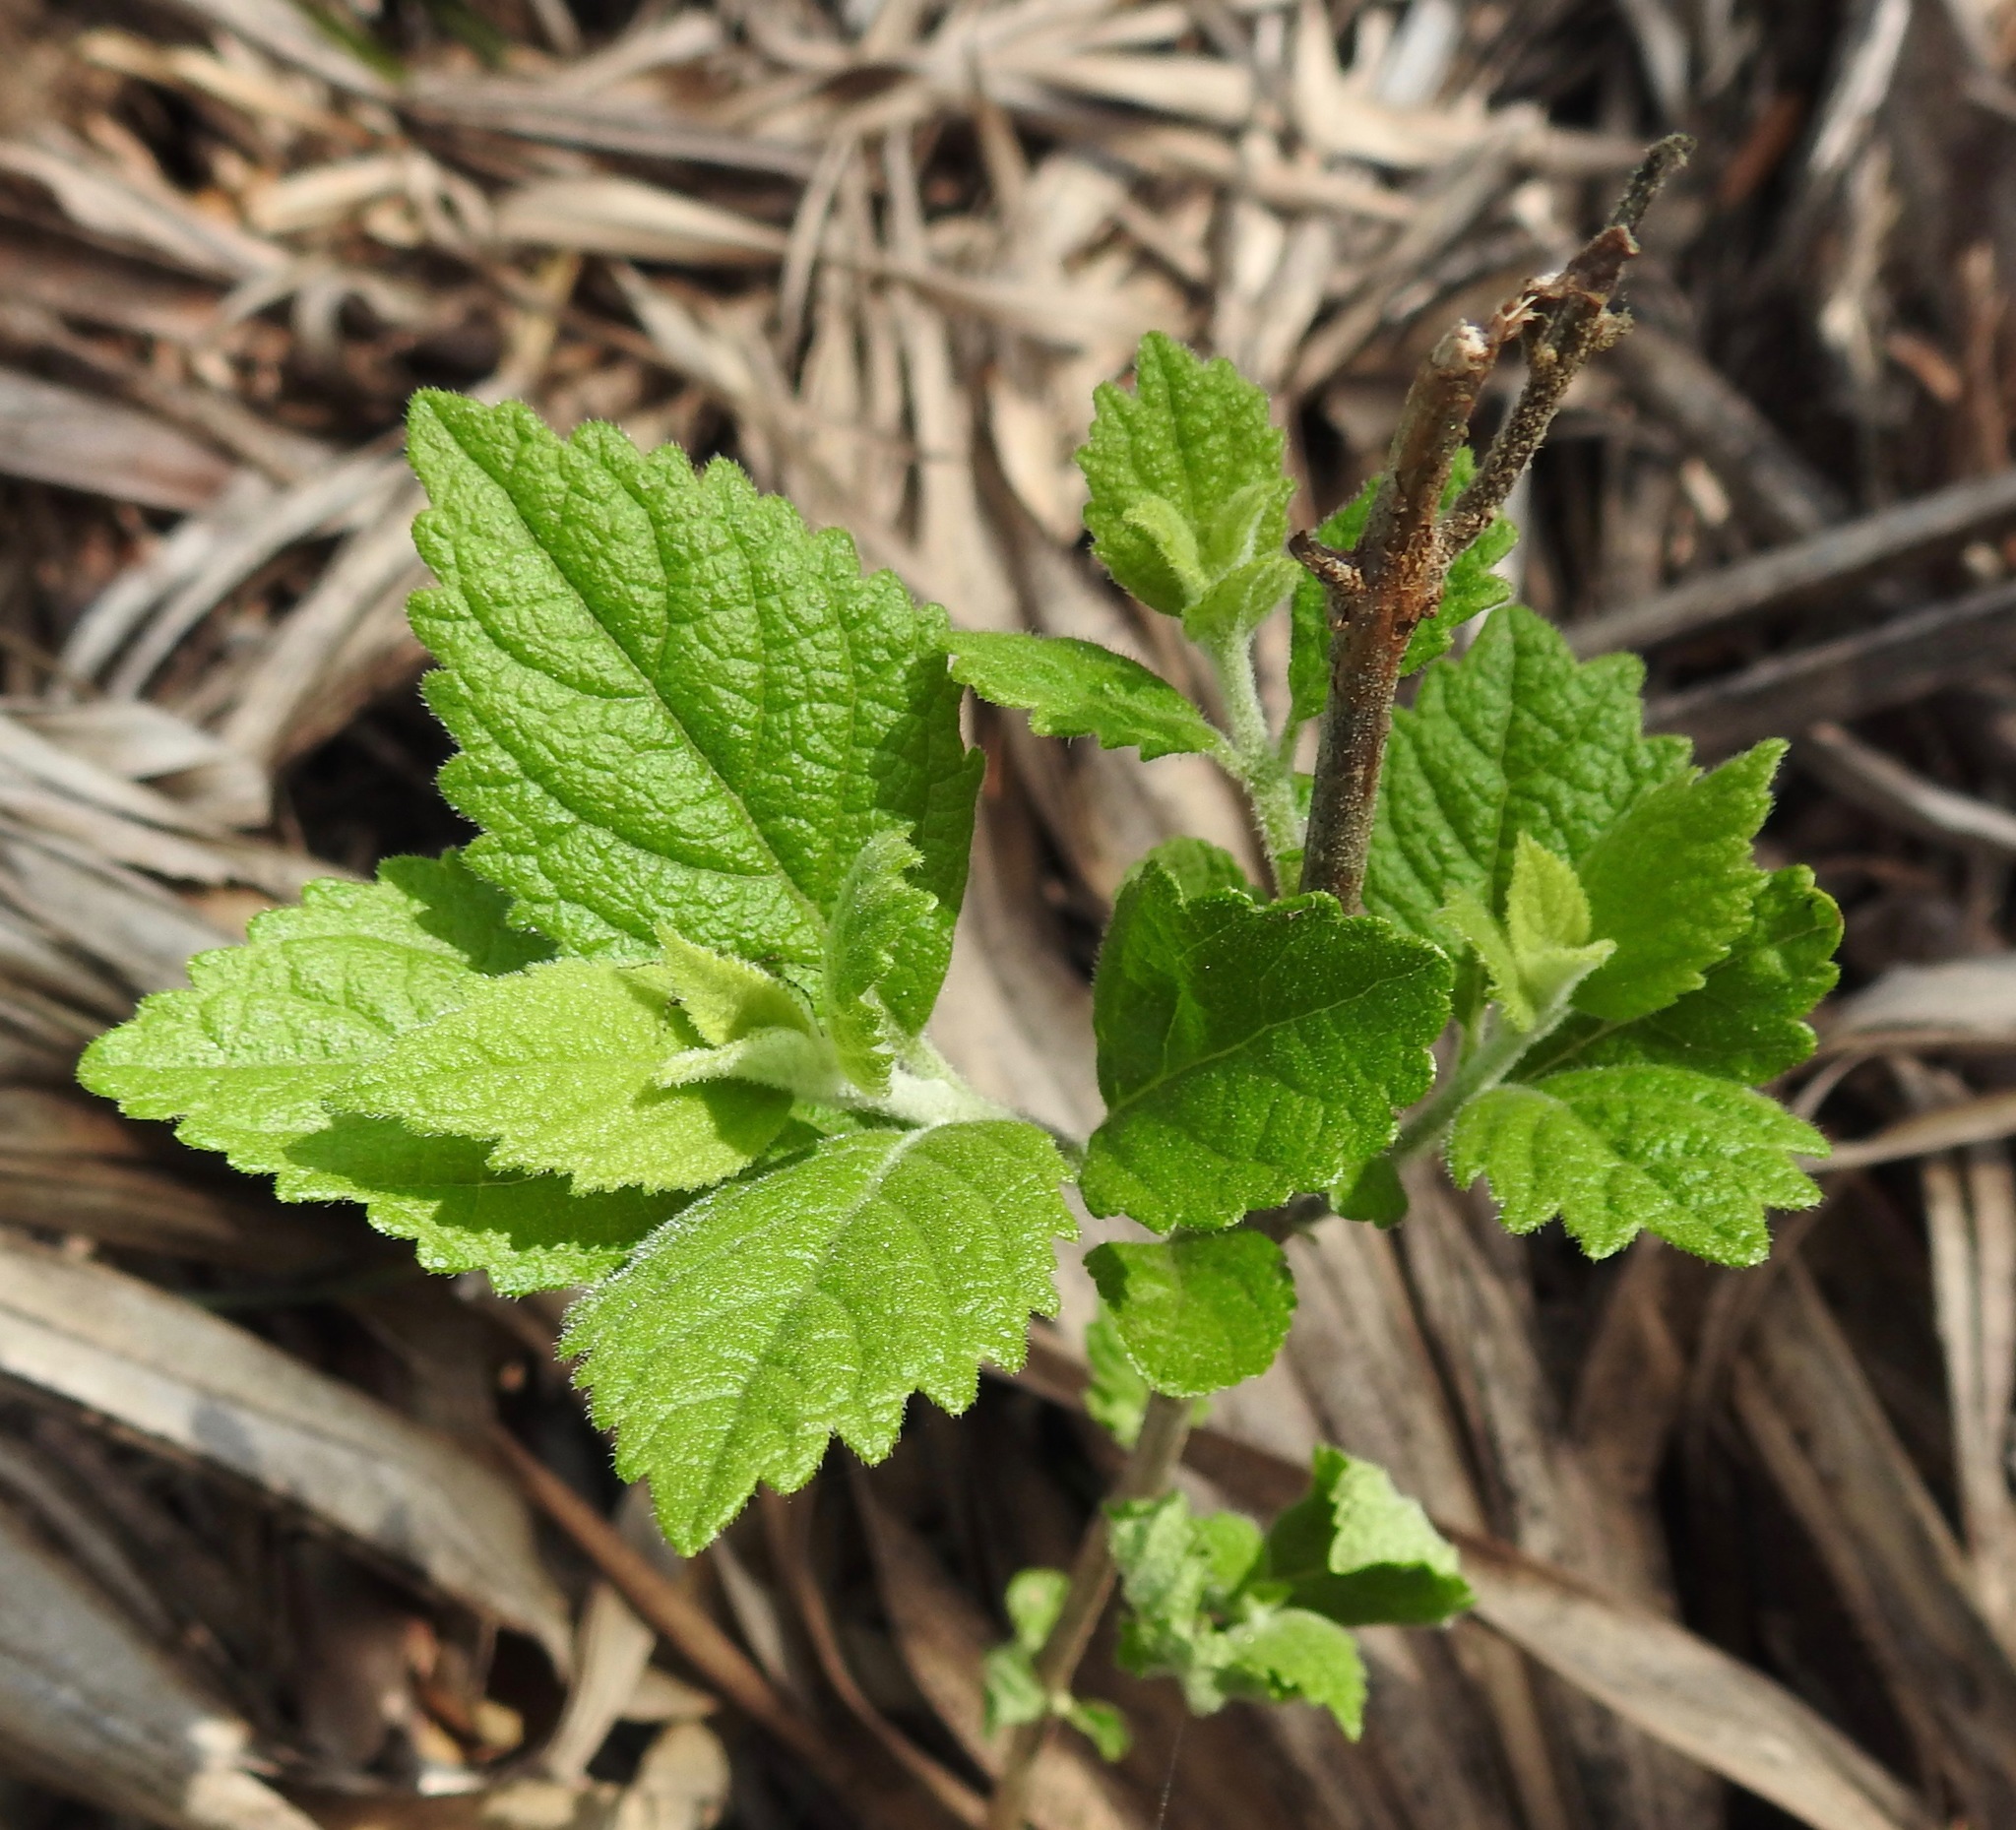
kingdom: Plantae
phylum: Tracheophyta
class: Magnoliopsida
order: Lamiales
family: Lamiaceae
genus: Callicarpa
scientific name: Callicarpa americana
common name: American beautyberry
